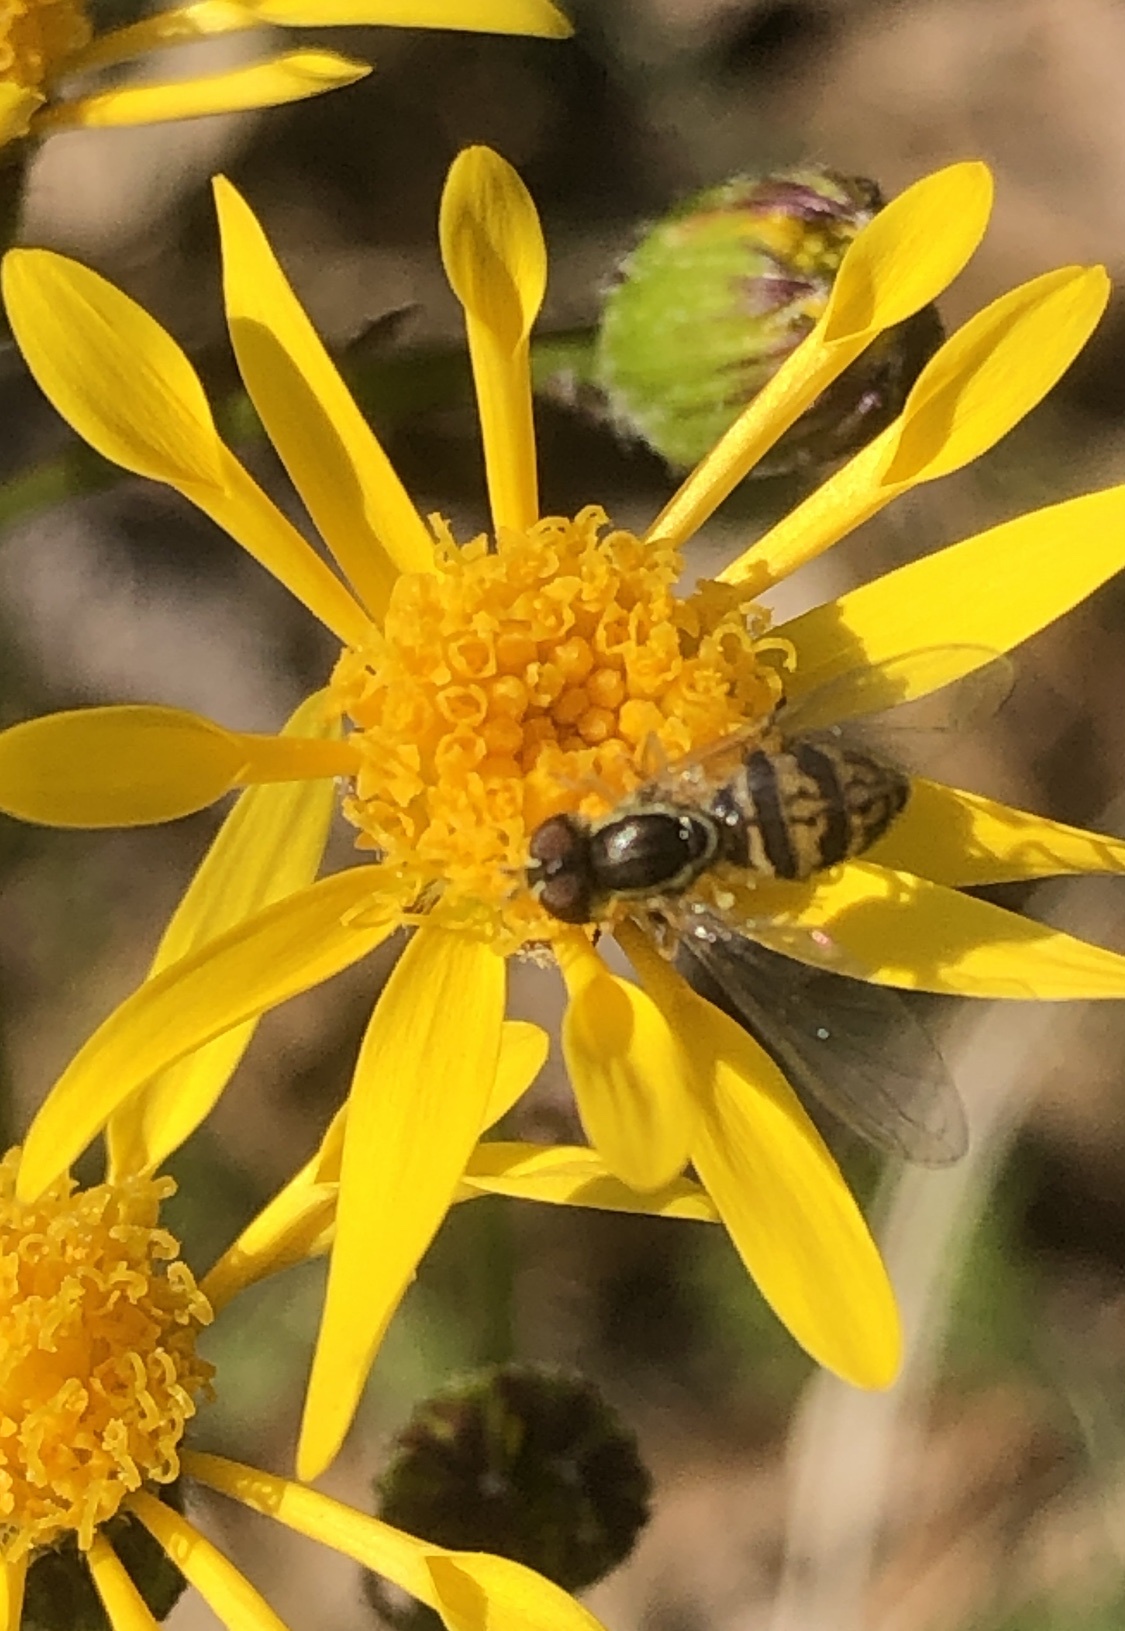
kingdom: Animalia
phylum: Arthropoda
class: Insecta
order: Diptera
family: Syrphidae
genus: Toxomerus
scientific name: Toxomerus geminatus
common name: Eastern calligrapher
